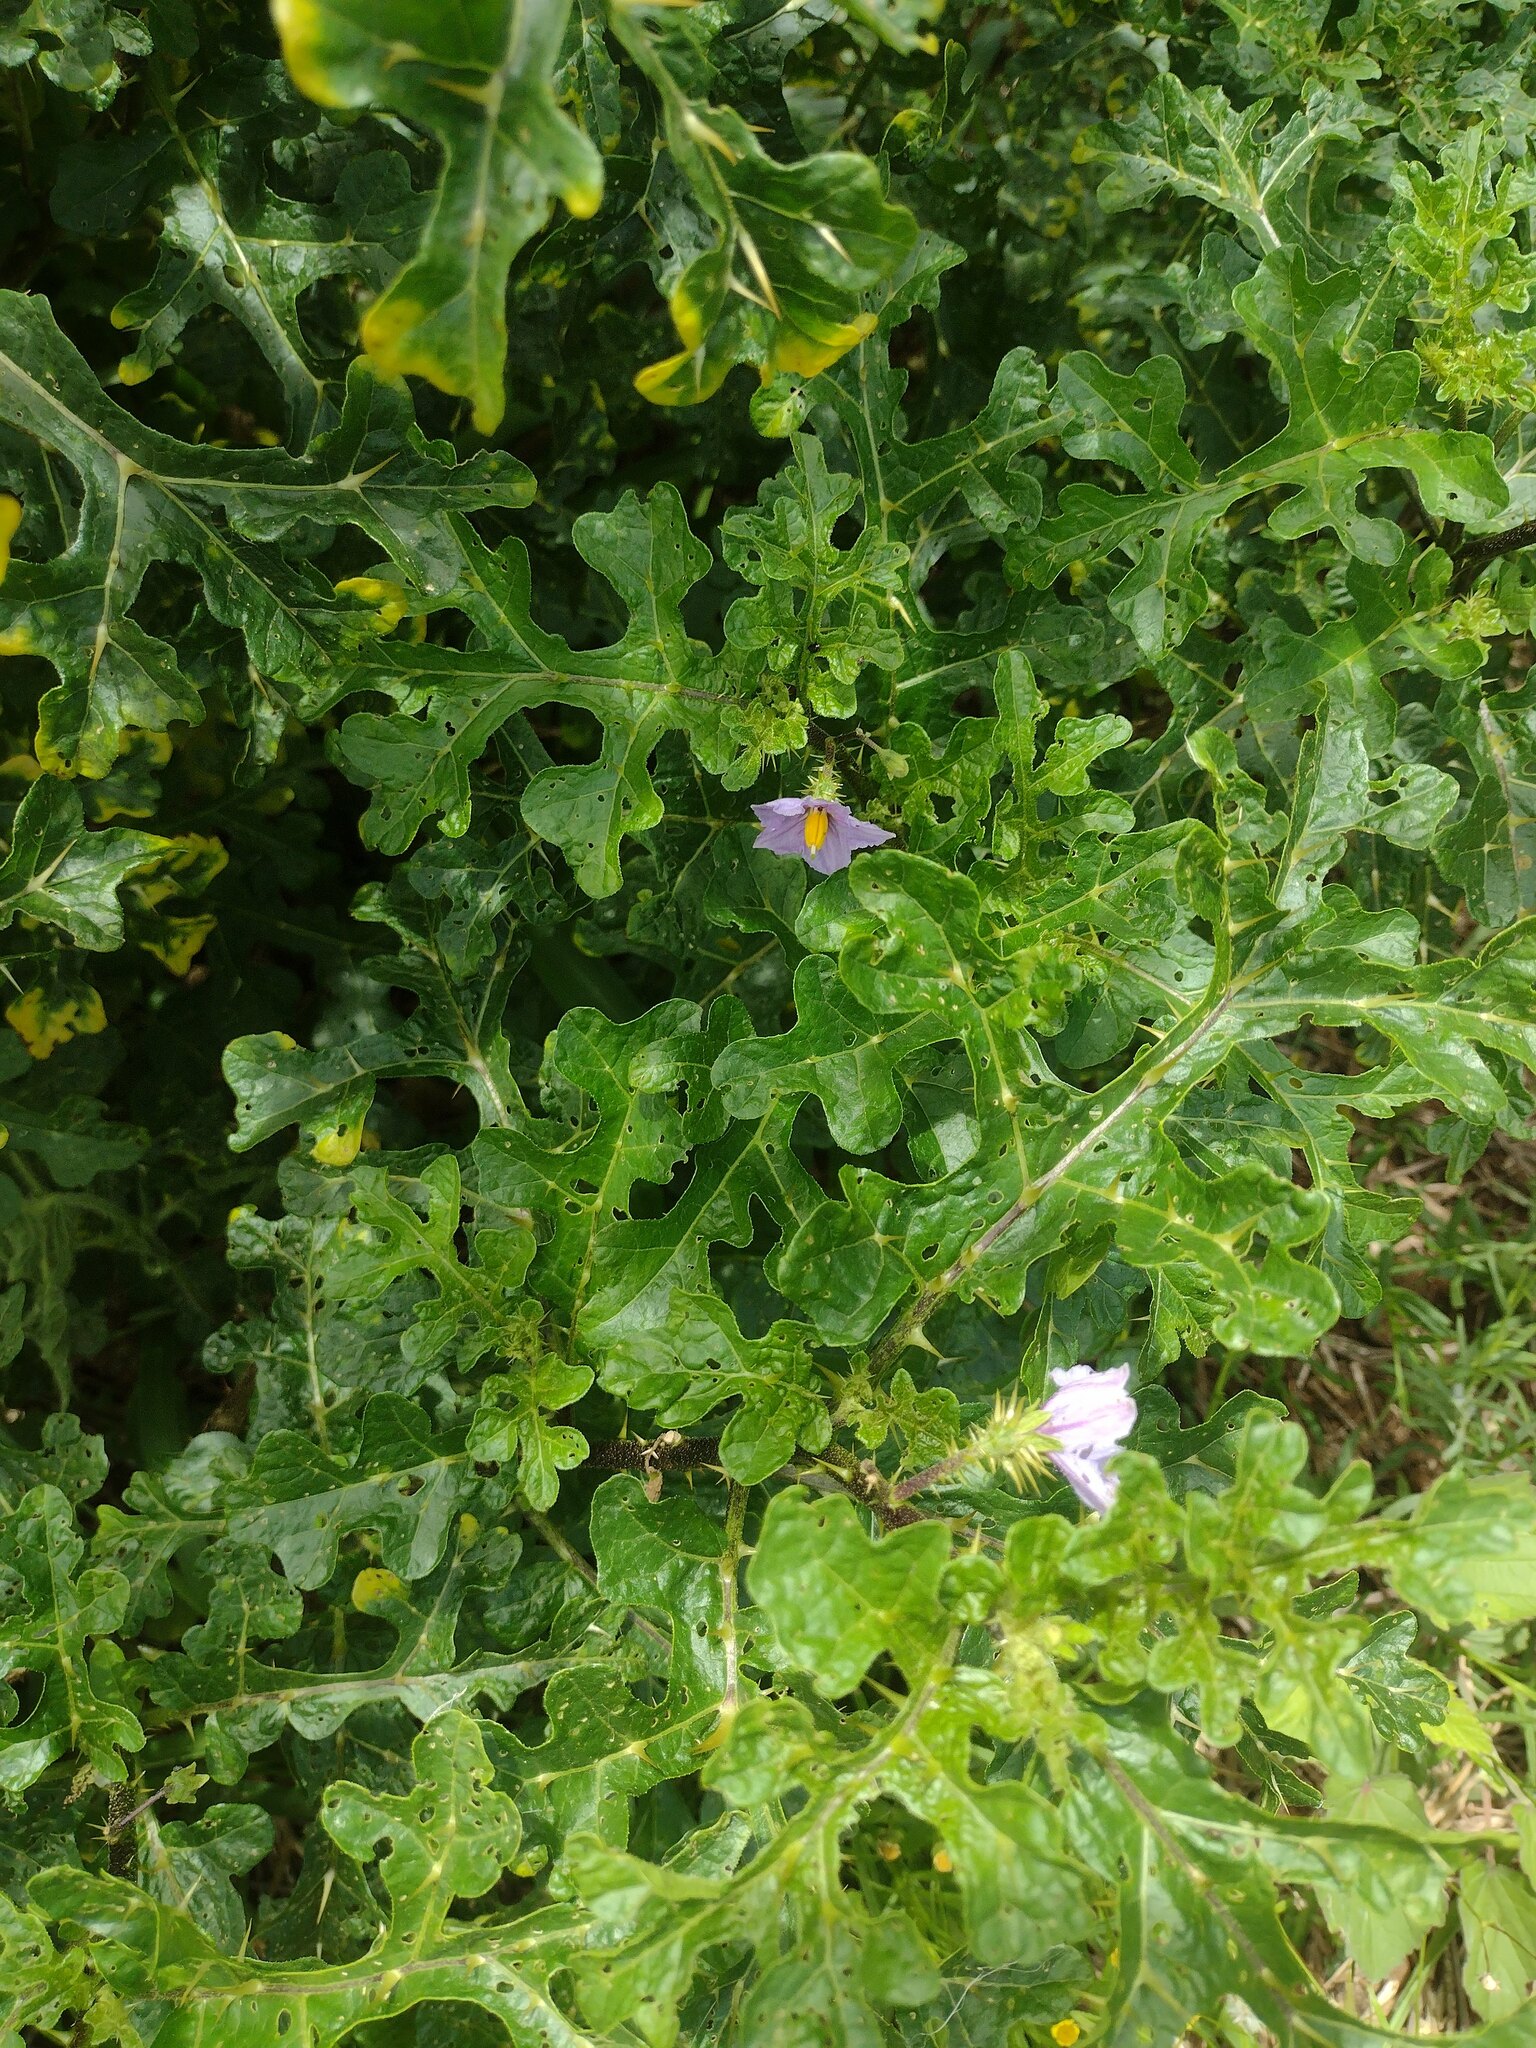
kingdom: Plantae
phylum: Tracheophyta
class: Magnoliopsida
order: Solanales
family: Solanaceae
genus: Solanum
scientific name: Solanum linnaeanum
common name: Nightshade
